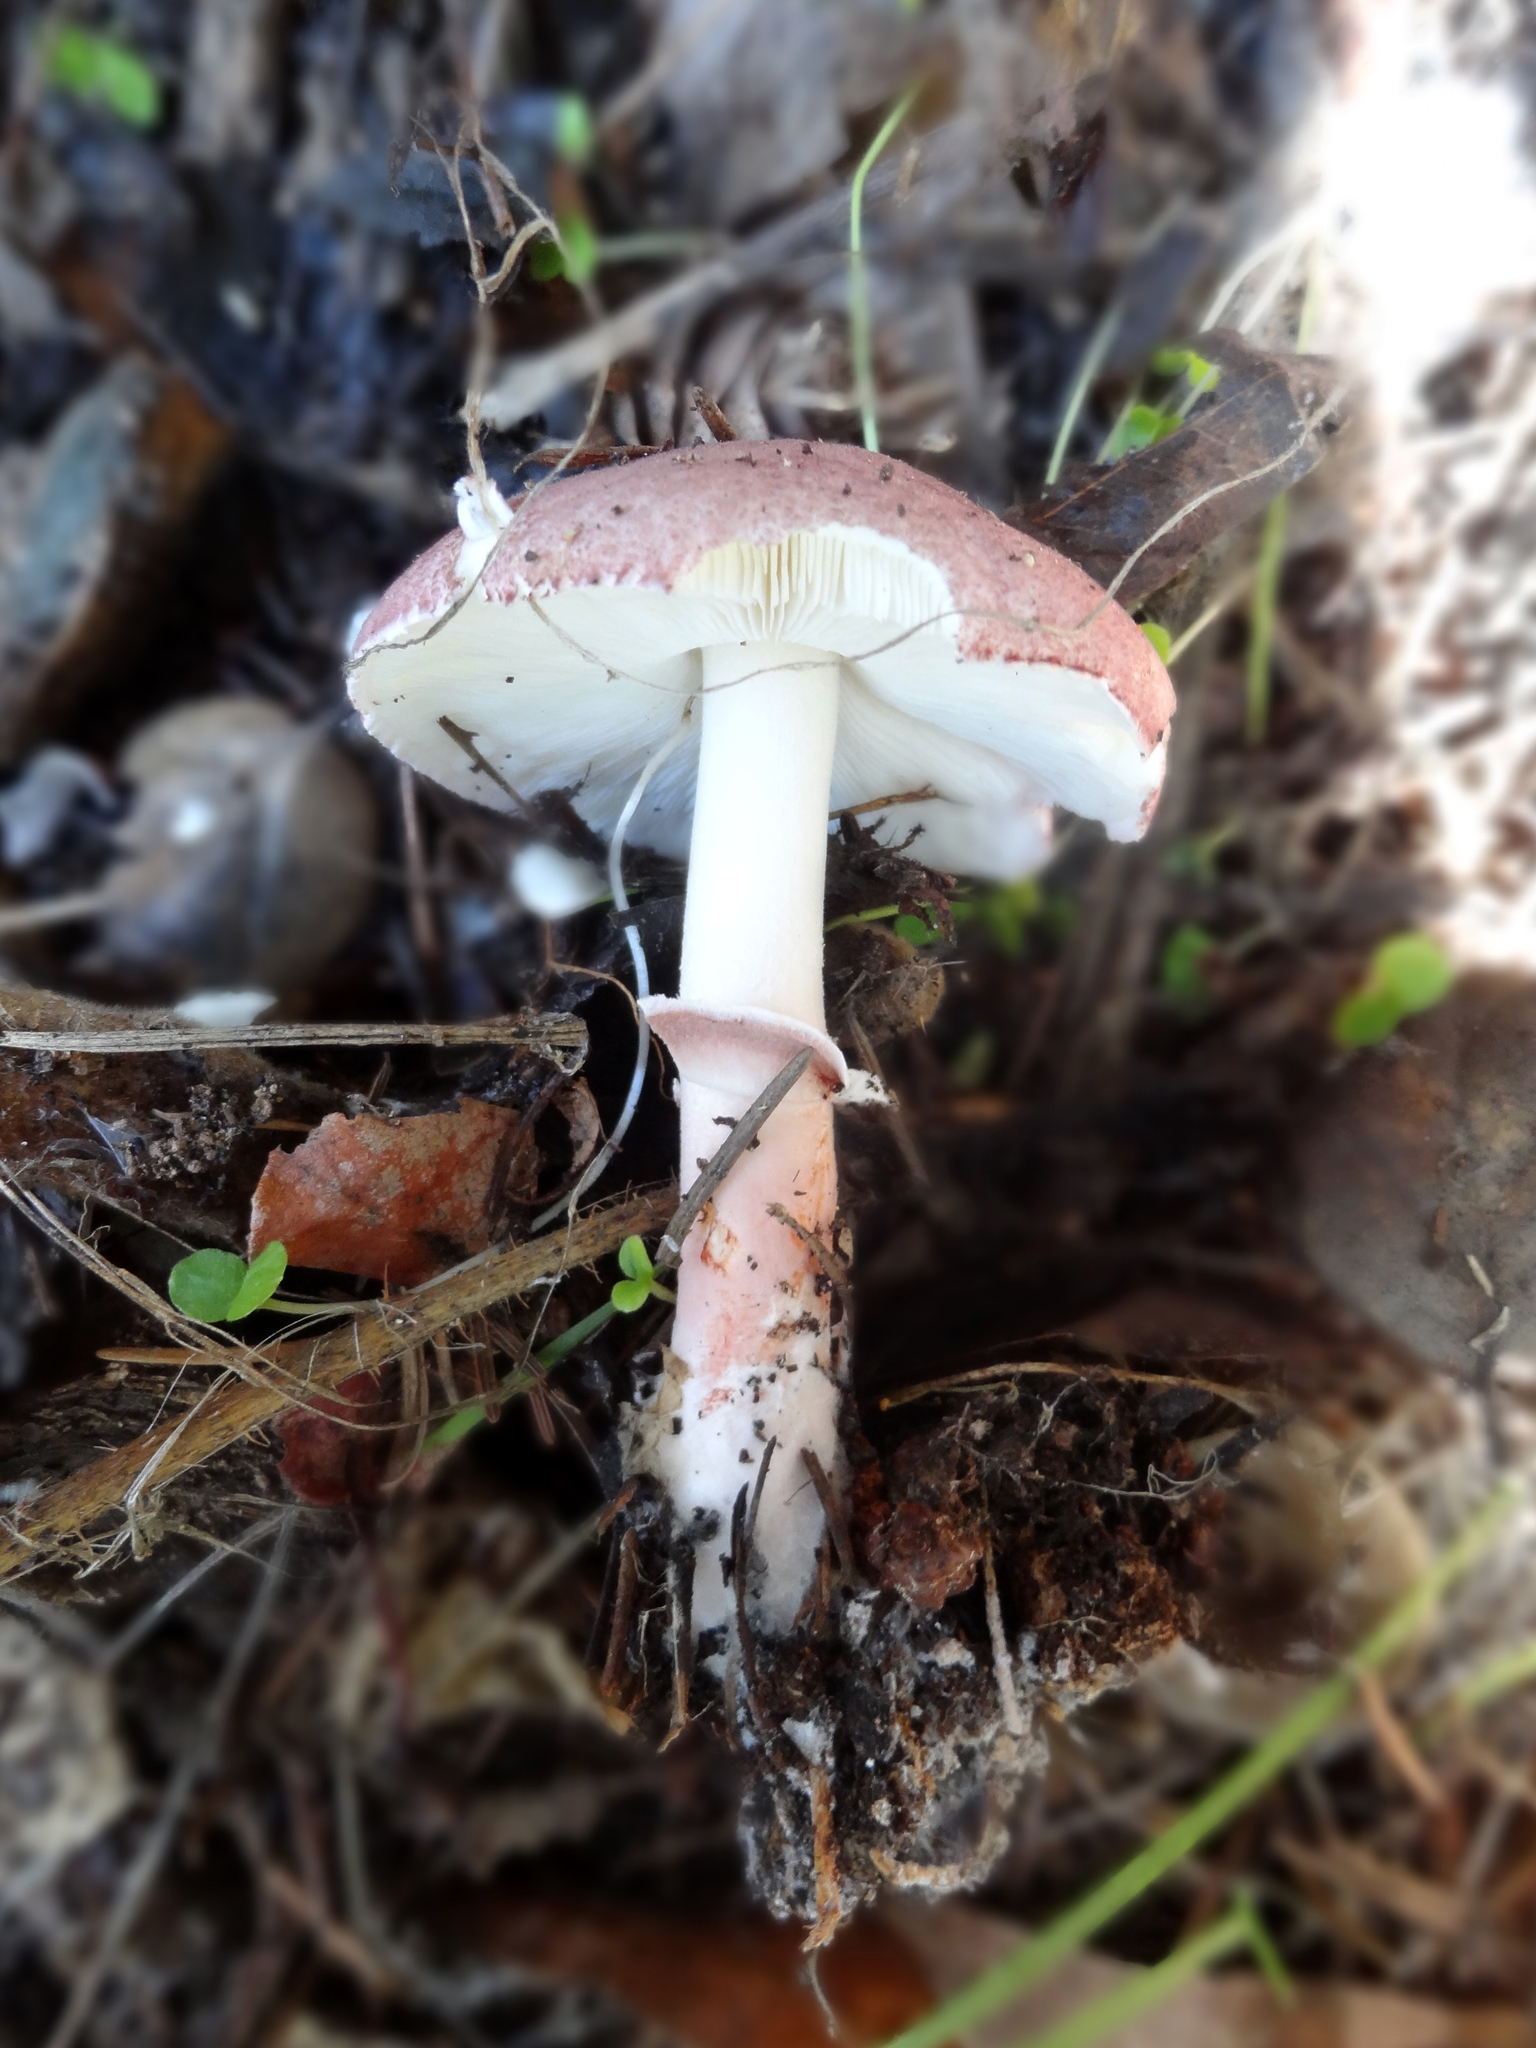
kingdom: Fungi
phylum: Basidiomycota
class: Agaricomycetes
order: Agaricales
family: Agaricaceae
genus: Lepiota
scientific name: Lepiota decorata
